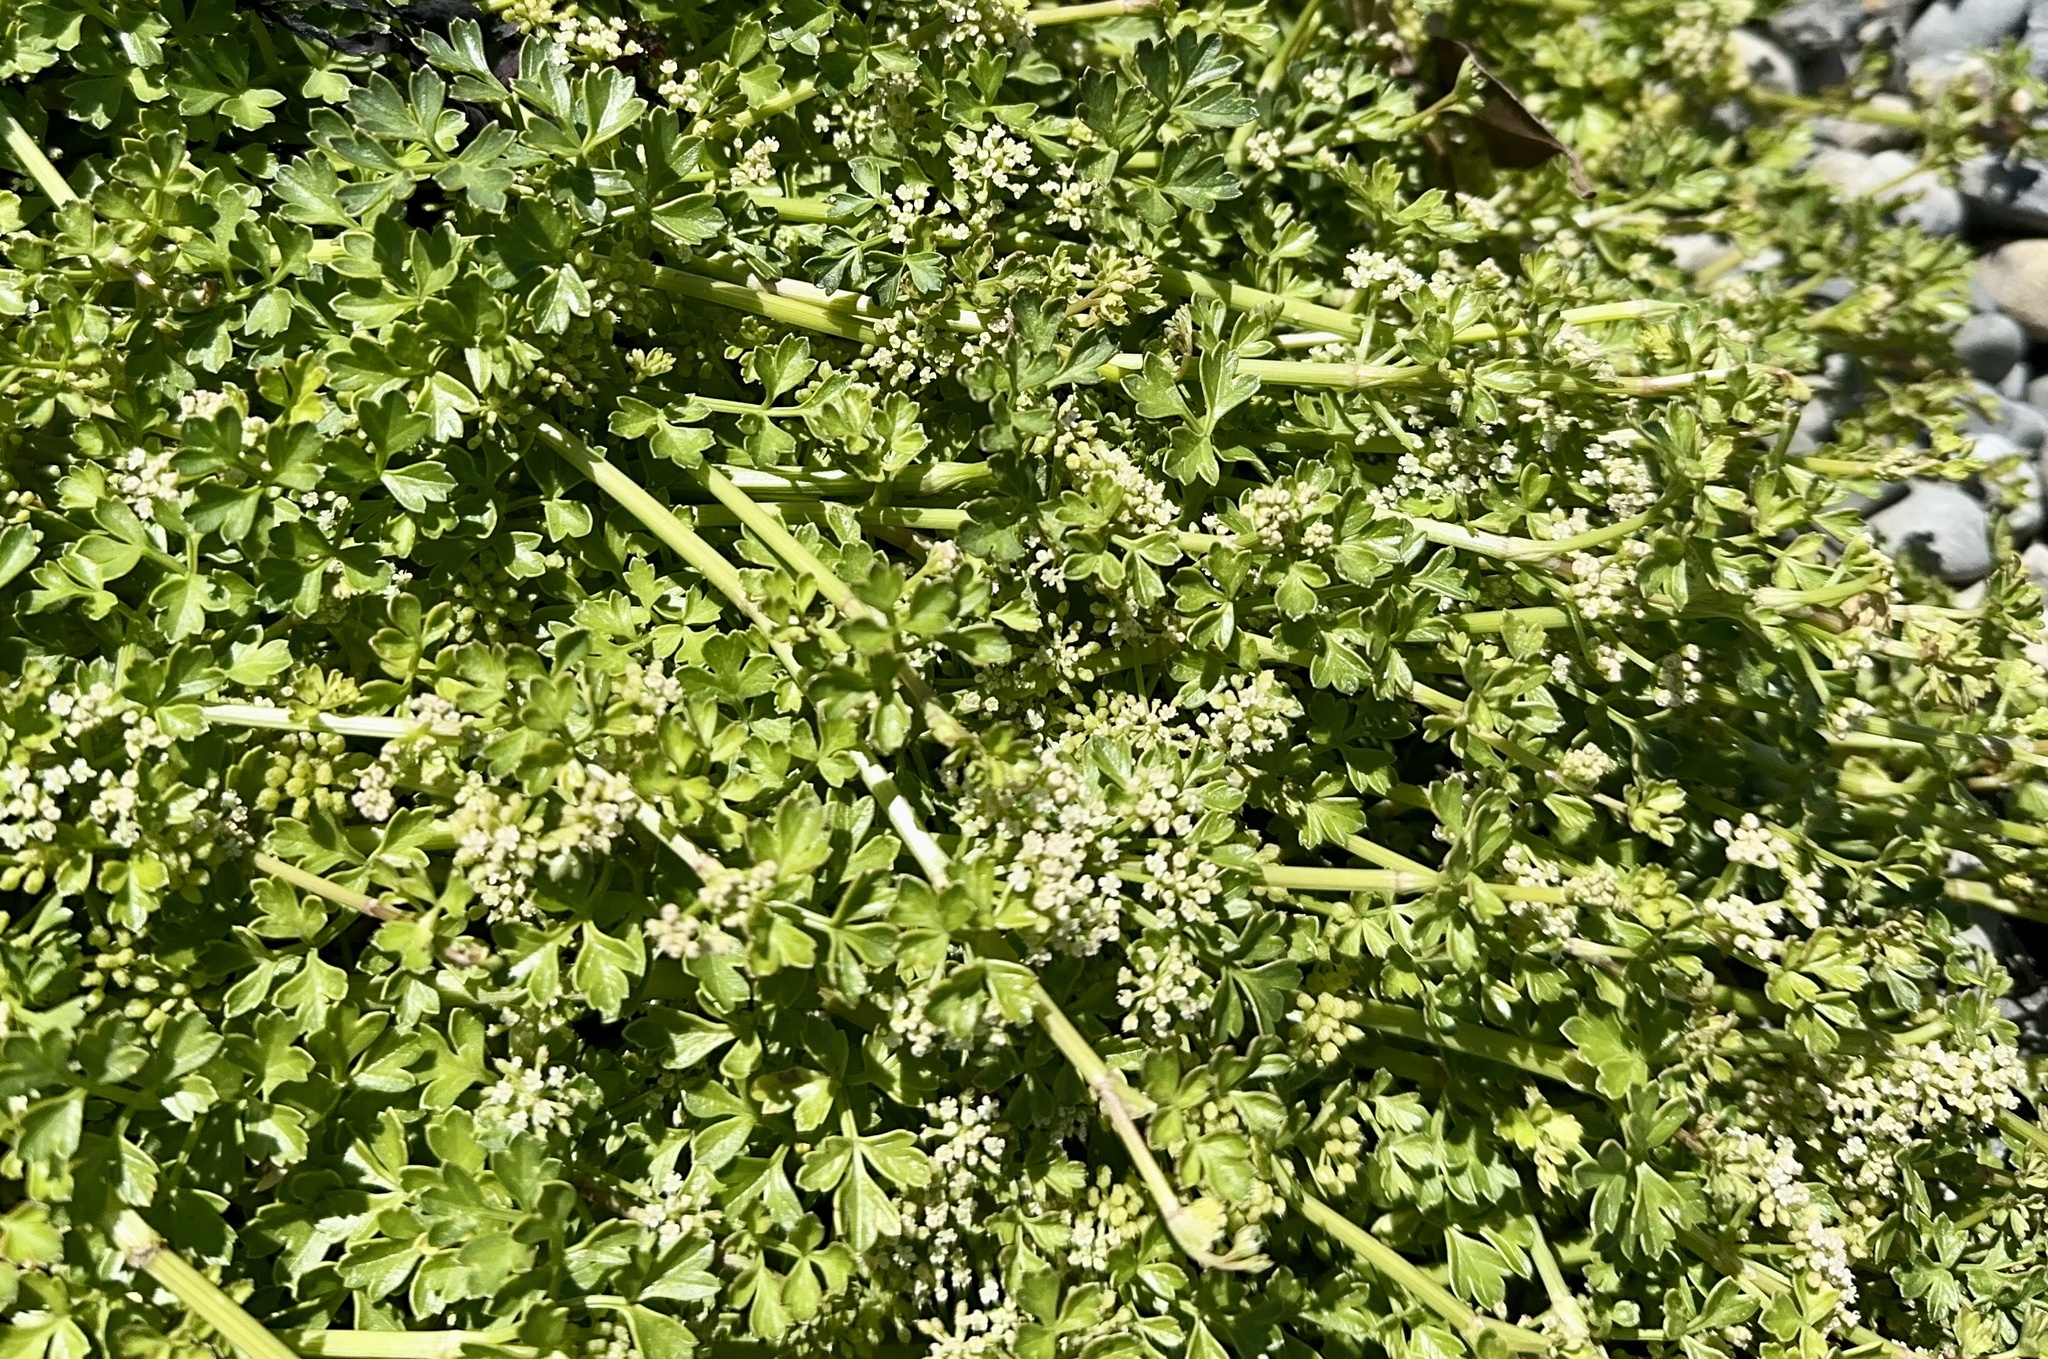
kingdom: Plantae
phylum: Tracheophyta
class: Magnoliopsida
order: Apiales
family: Apiaceae
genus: Apium
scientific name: Apium prostratum
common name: Prostrate marshwort
